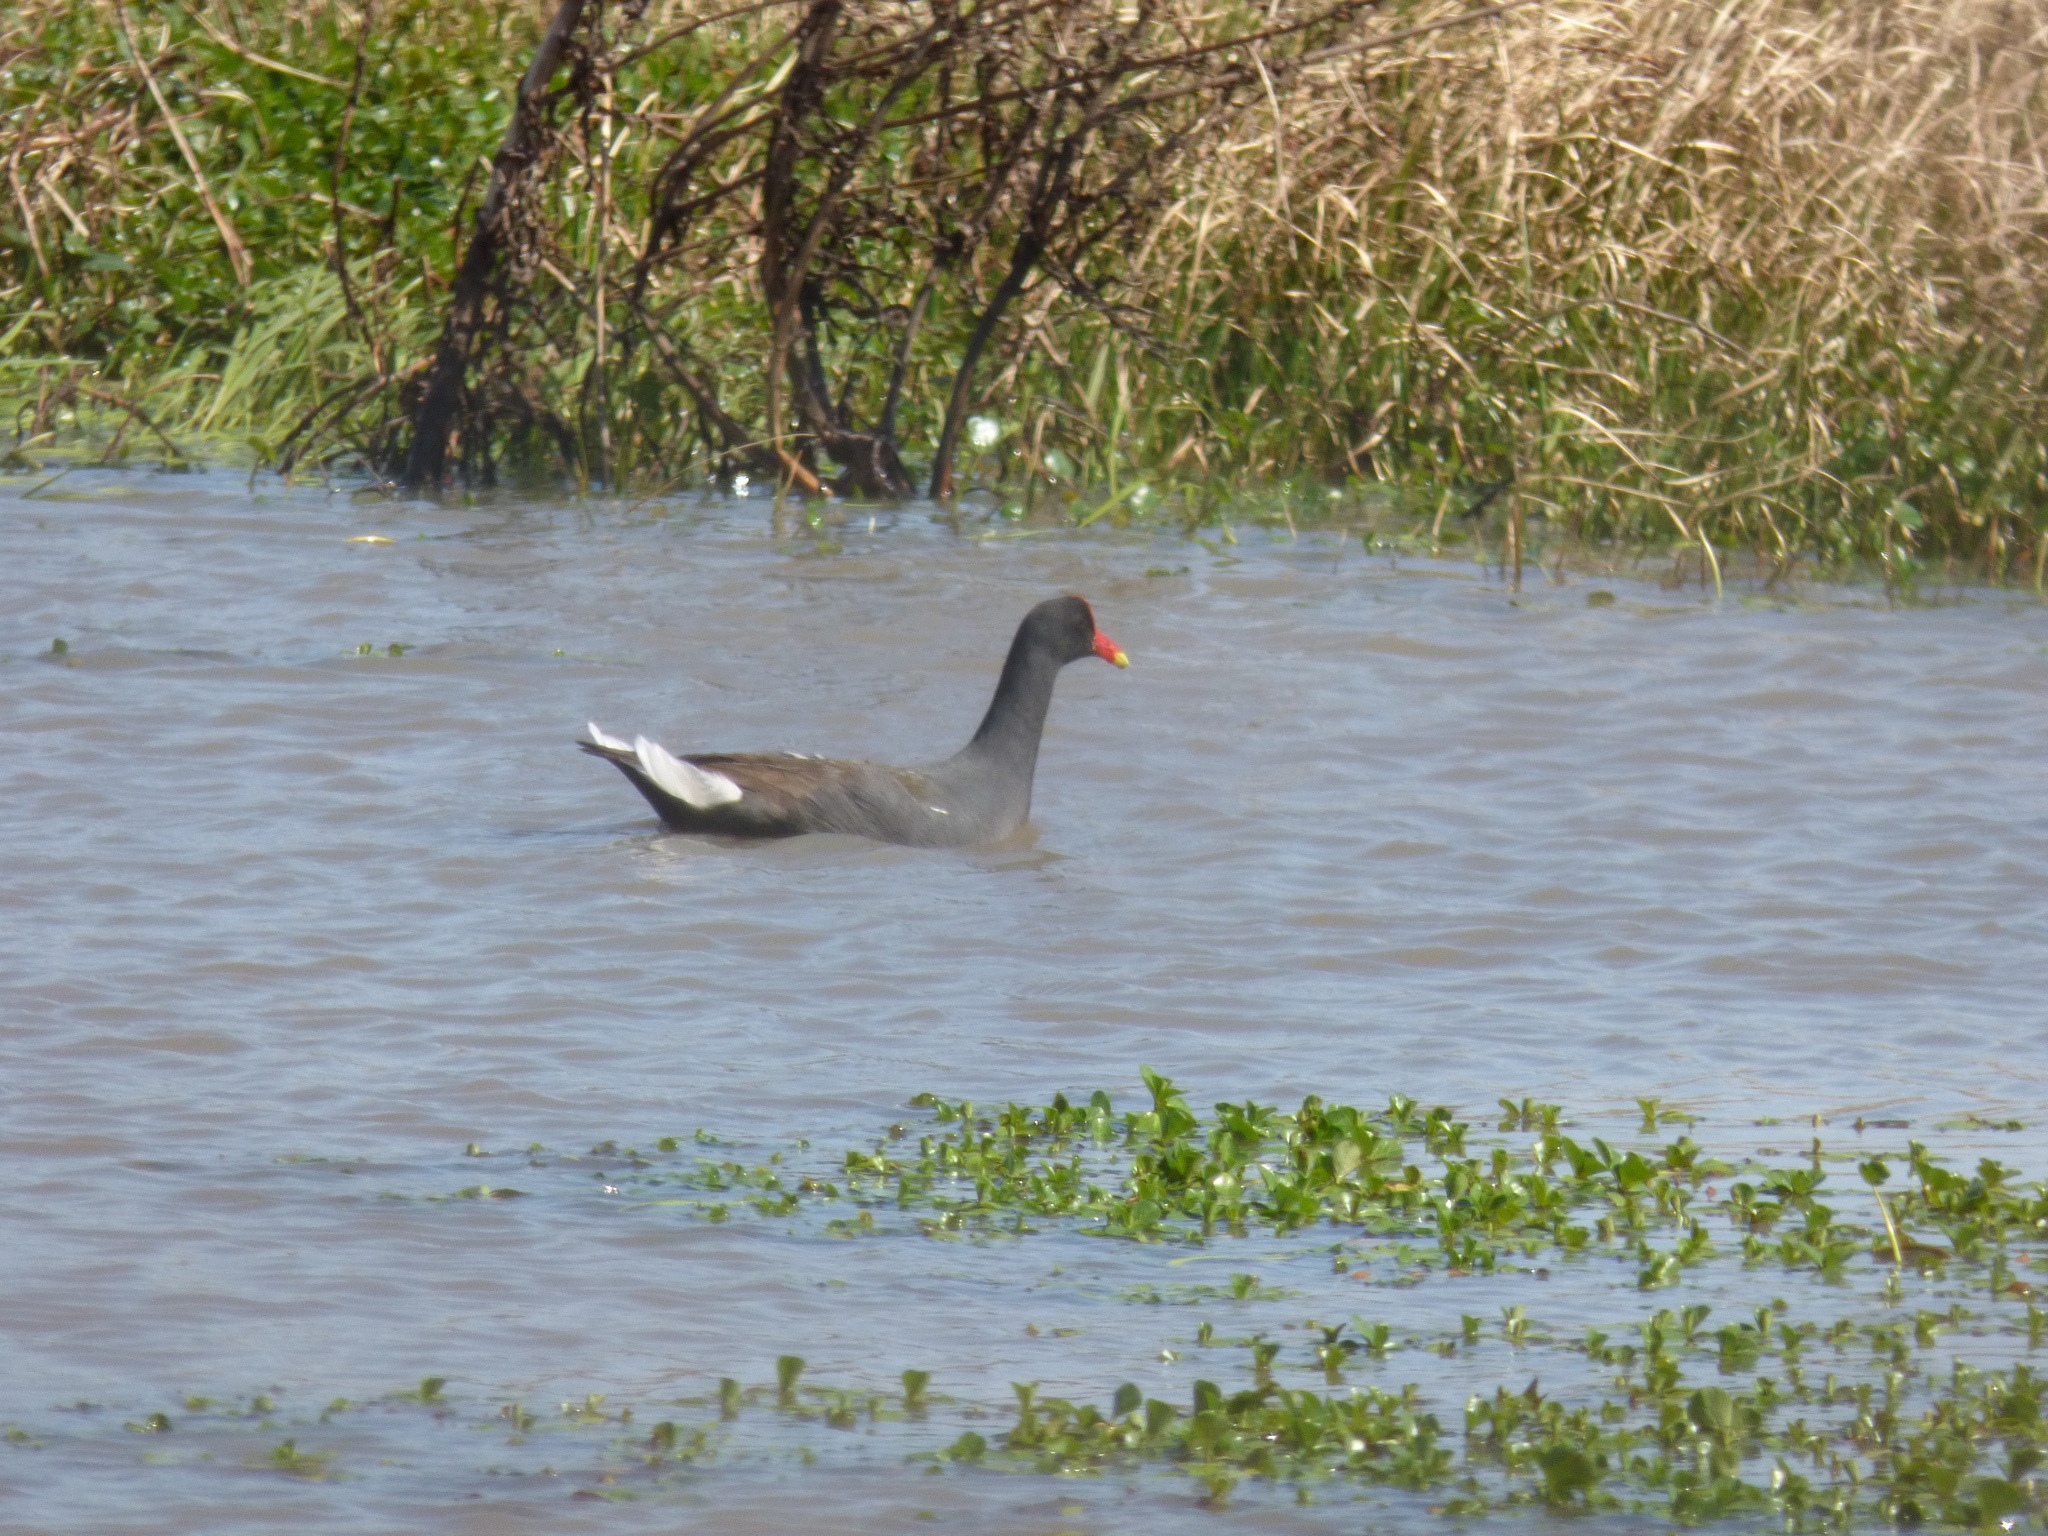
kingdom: Animalia
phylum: Chordata
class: Aves
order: Gruiformes
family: Rallidae
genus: Gallinula
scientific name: Gallinula chloropus
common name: Common moorhen
